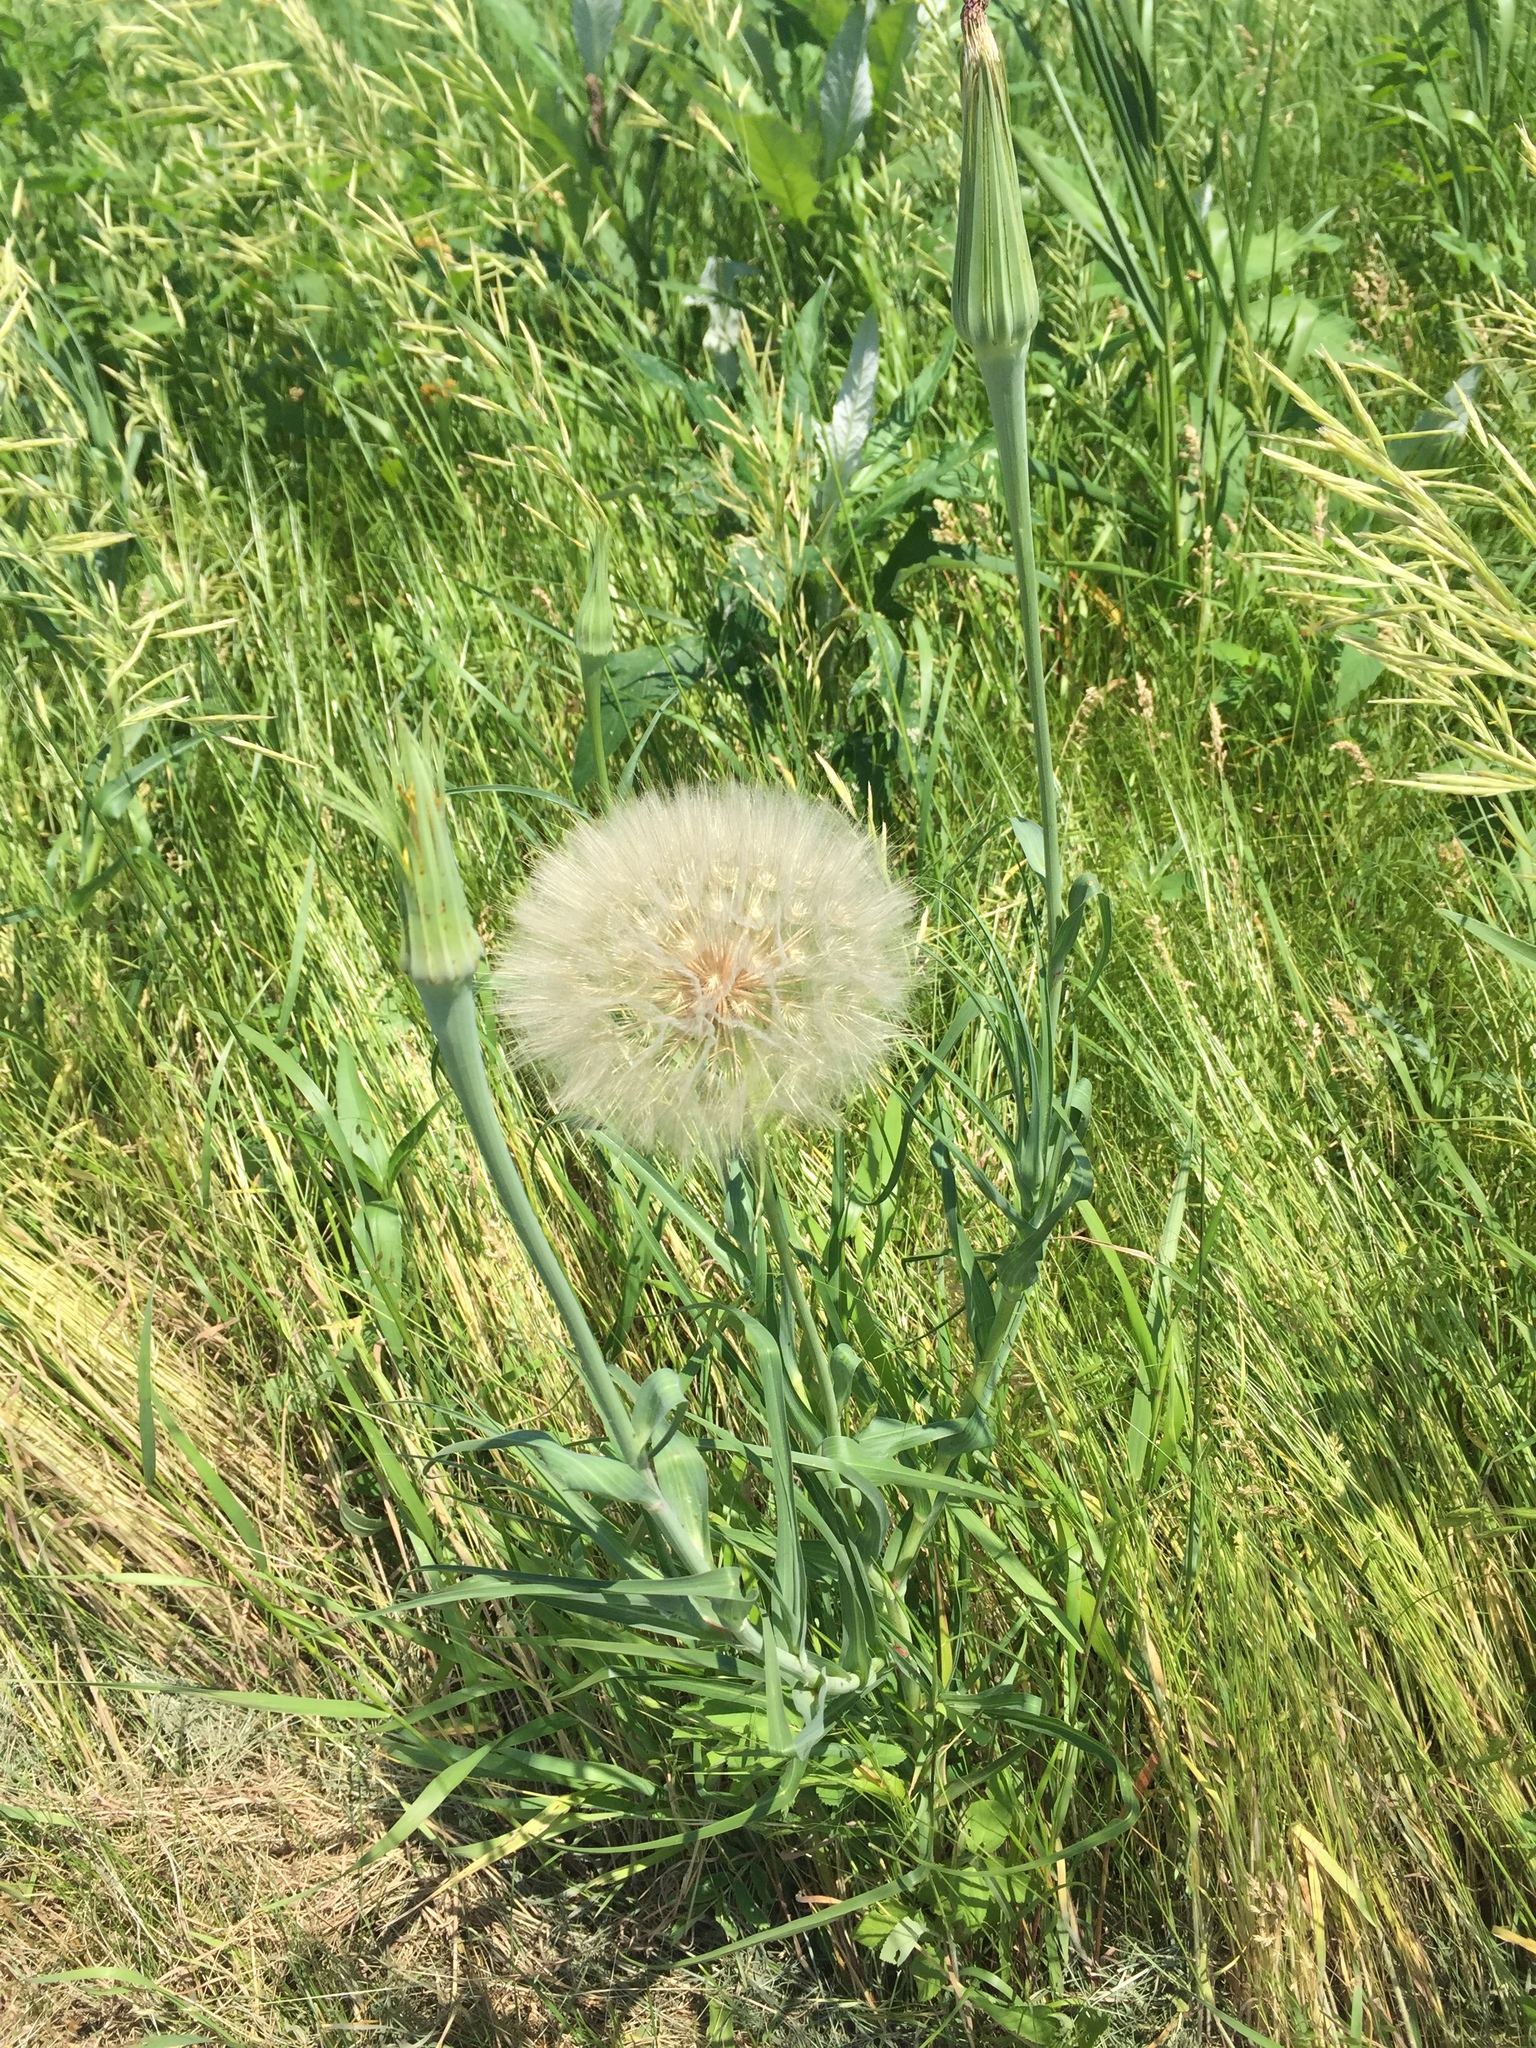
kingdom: Plantae
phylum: Tracheophyta
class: Magnoliopsida
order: Asterales
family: Asteraceae
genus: Tragopogon
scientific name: Tragopogon dubius
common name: Yellow salsify
